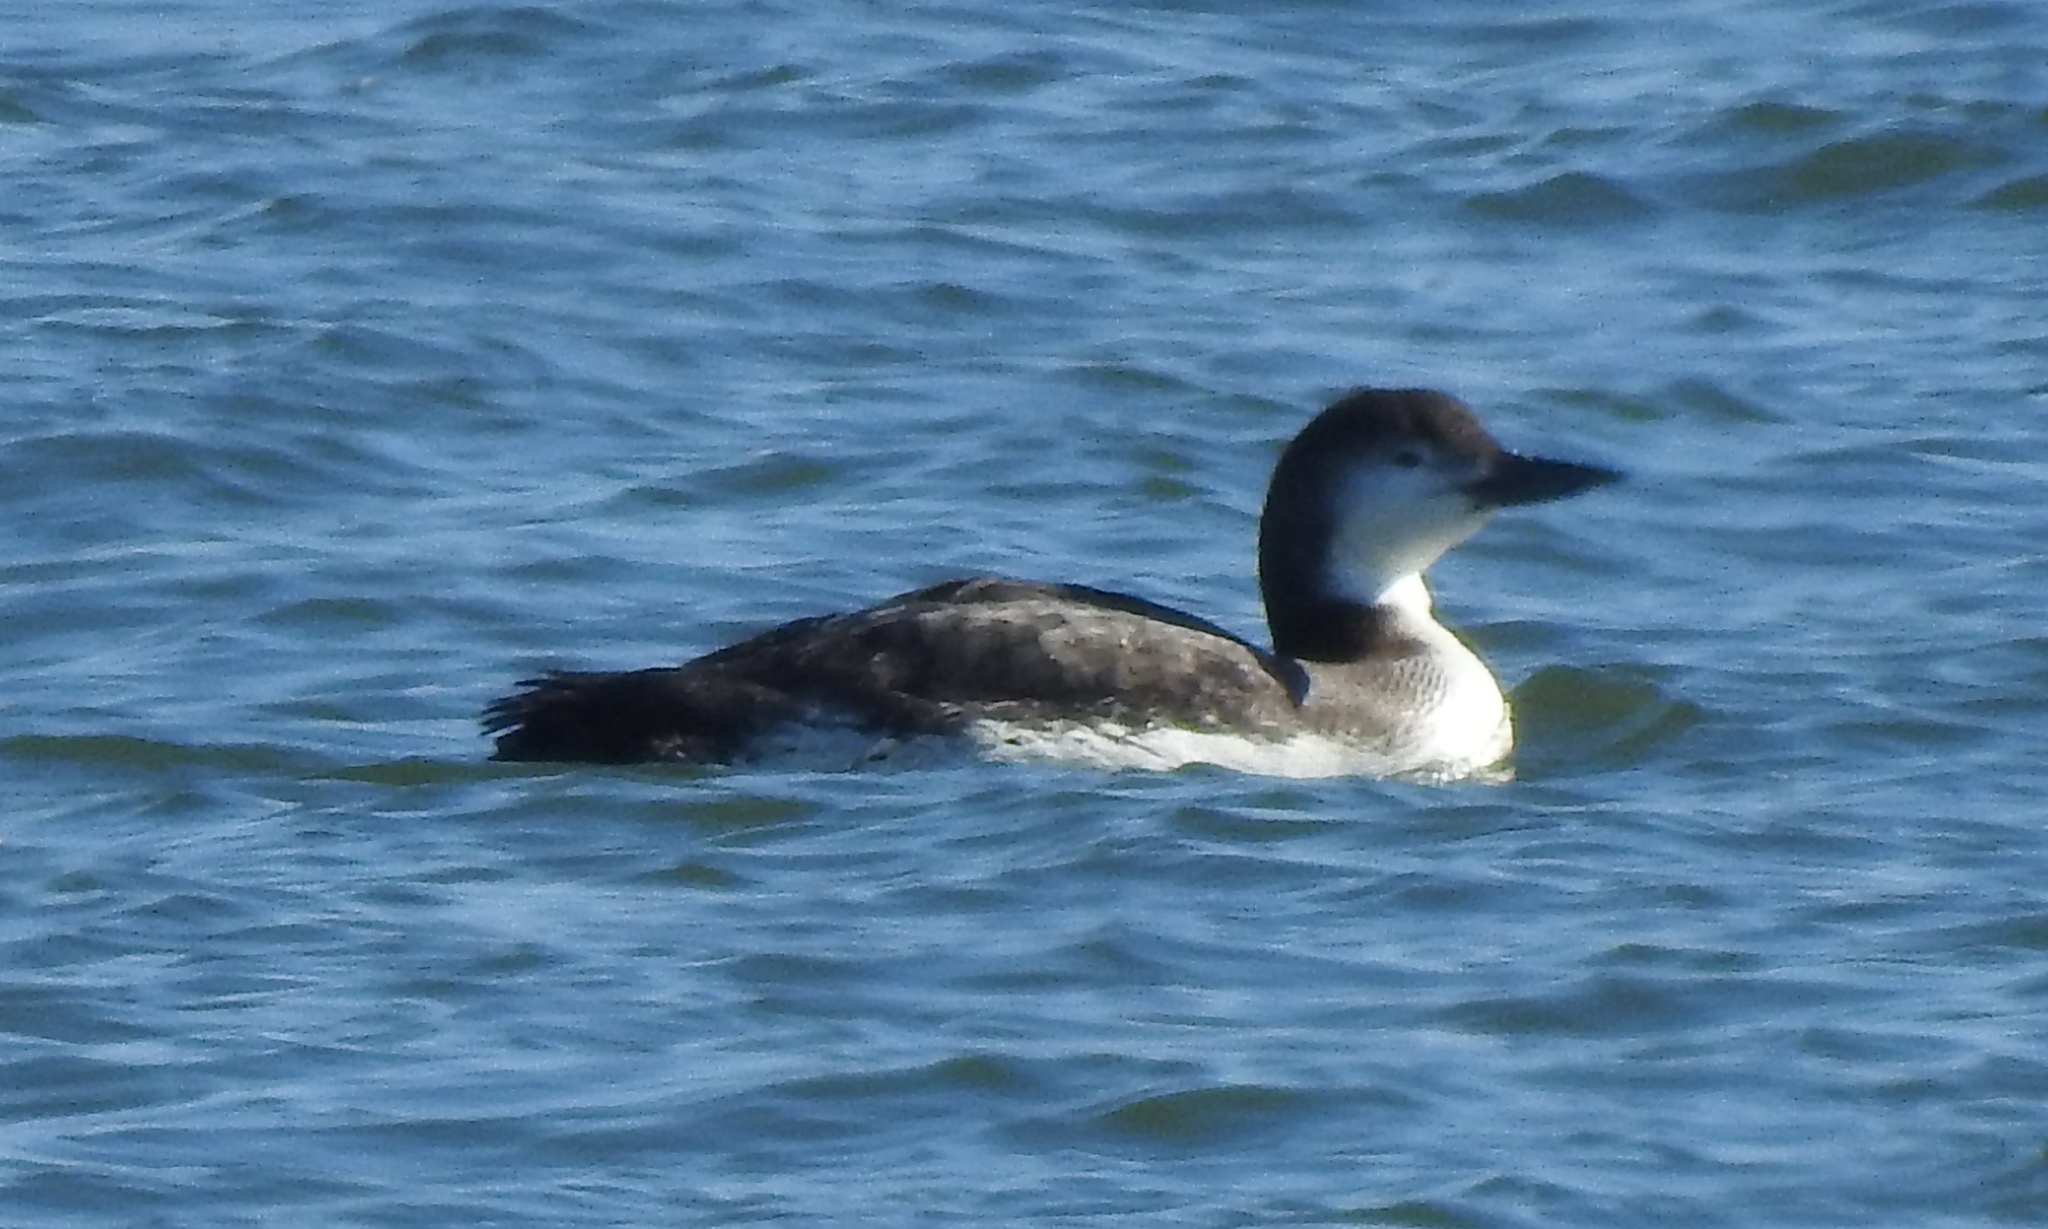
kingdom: Animalia
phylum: Chordata
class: Aves
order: Gaviiformes
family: Gaviidae
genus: Gavia
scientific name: Gavia immer
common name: Common loon
